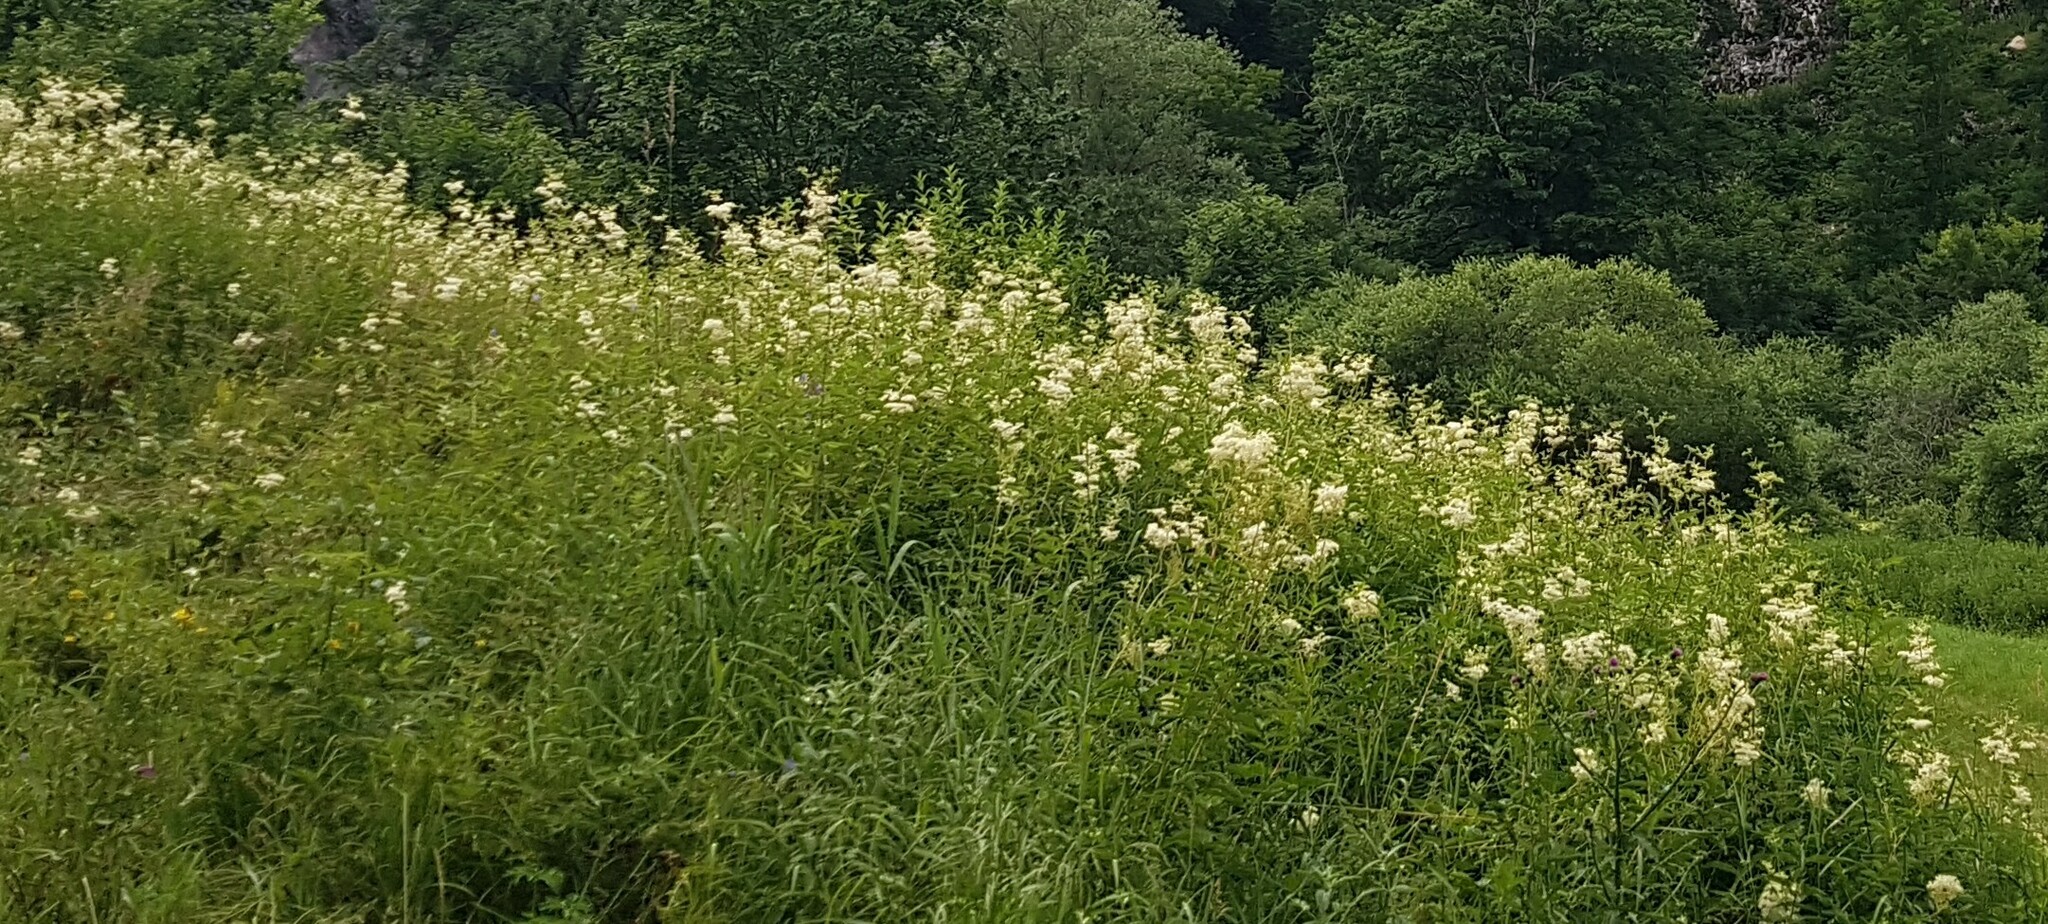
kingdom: Plantae
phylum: Tracheophyta
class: Magnoliopsida
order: Rosales
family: Rosaceae
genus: Filipendula
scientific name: Filipendula ulmaria
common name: Meadowsweet
